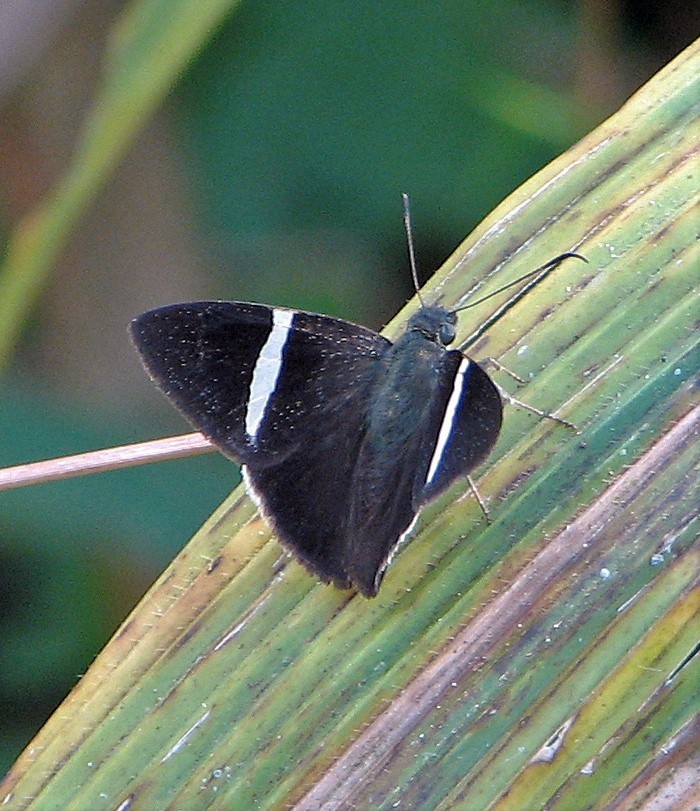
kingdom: Animalia
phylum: Arthropoda
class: Insecta
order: Lepidoptera
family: Hesperiidae
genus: Autochton
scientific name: Autochton zarex
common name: Sharp banded-skipper
